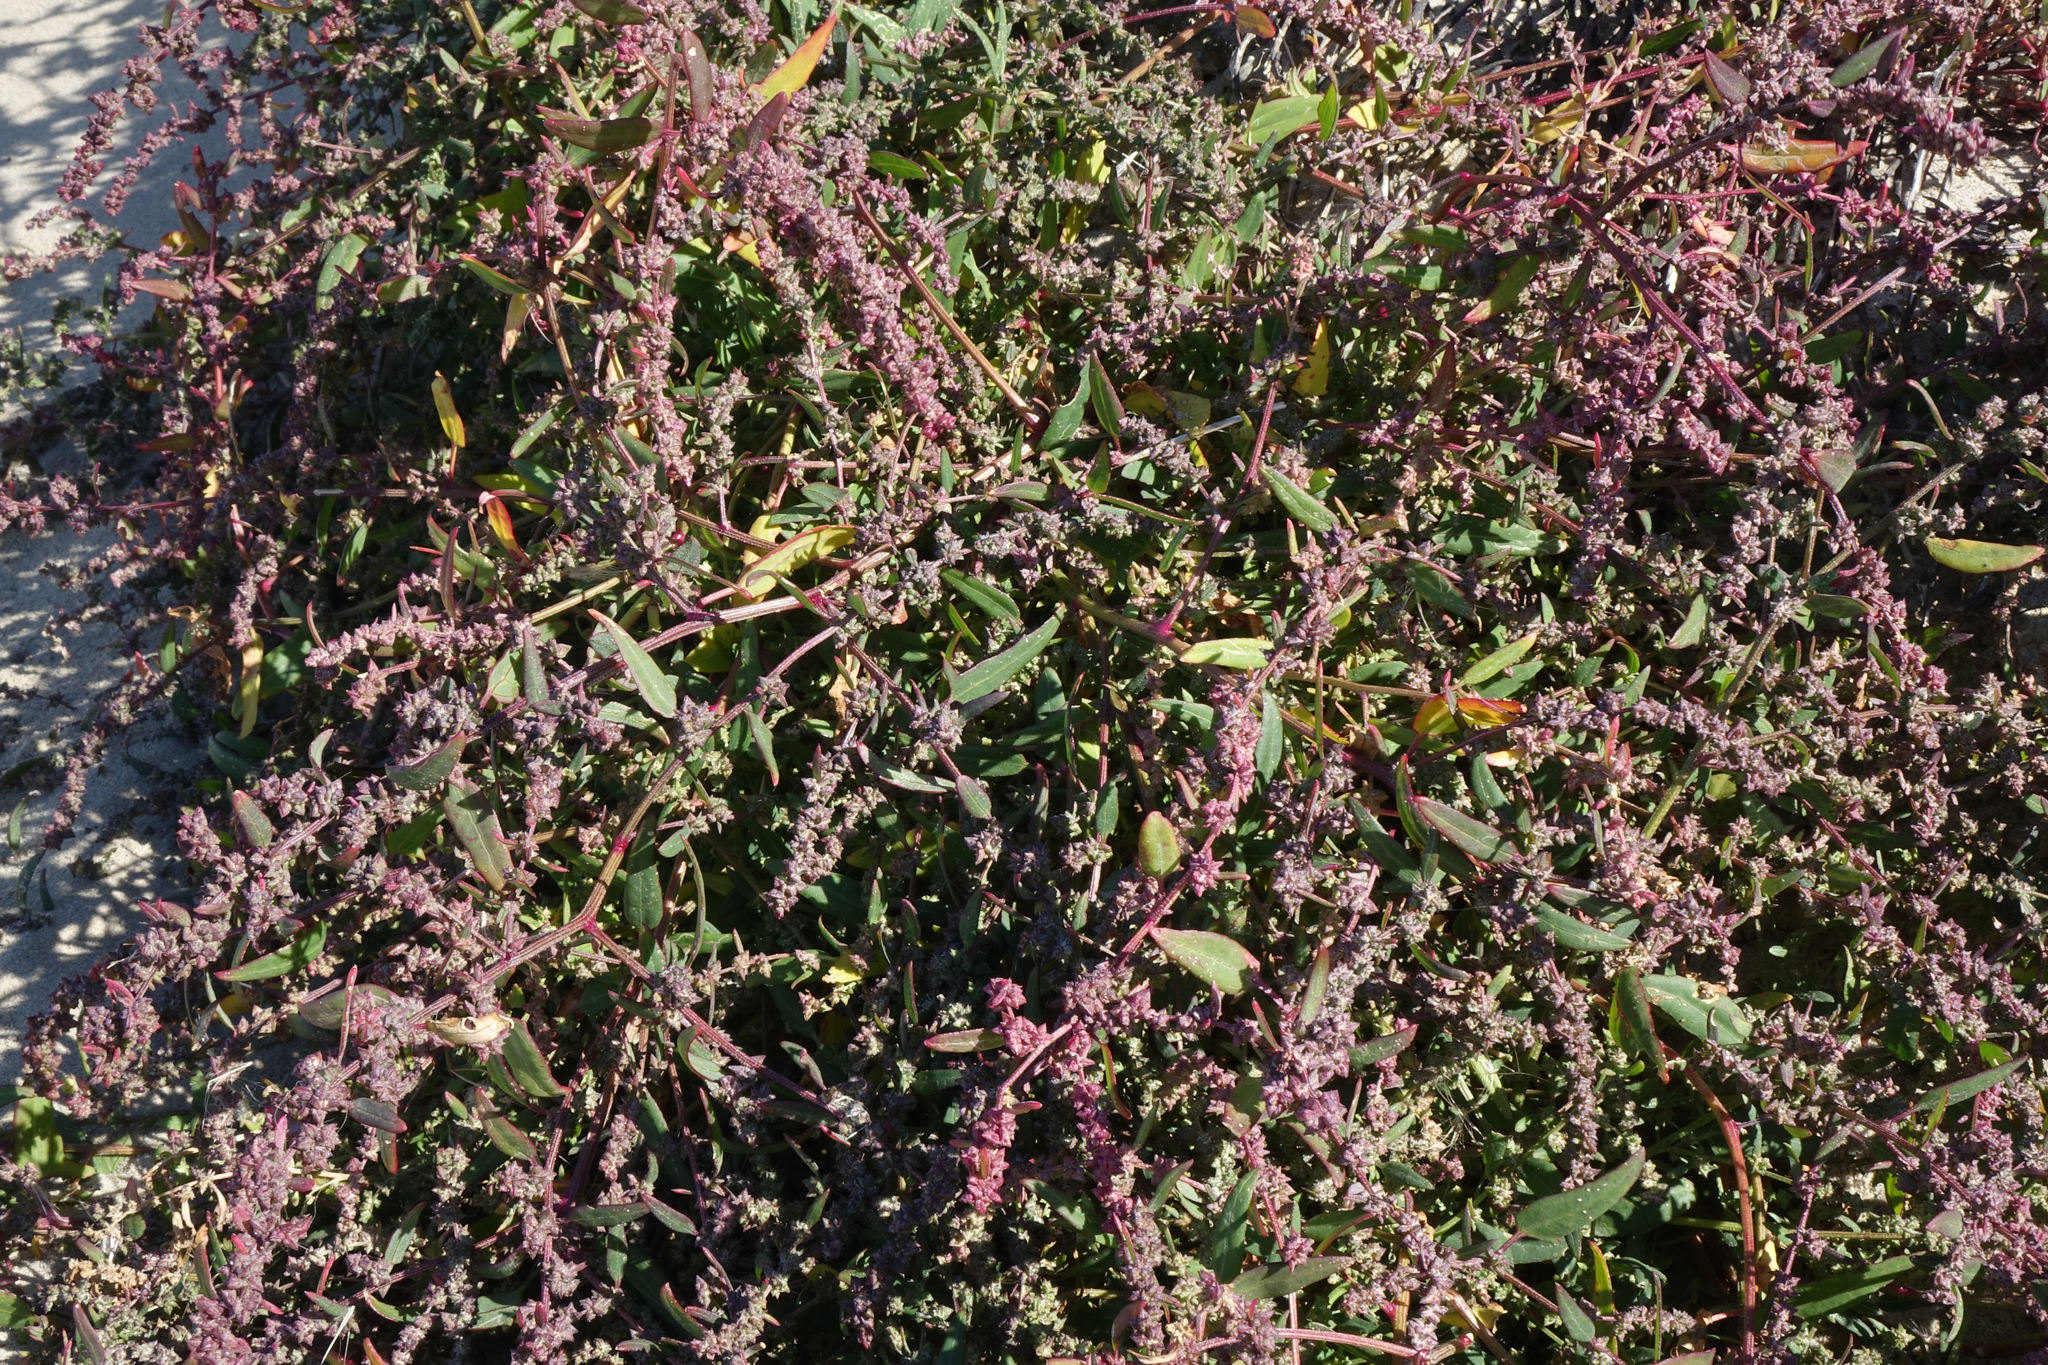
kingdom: Plantae
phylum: Tracheophyta
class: Magnoliopsida
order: Caryophyllales
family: Amaranthaceae
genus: Atriplex
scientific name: Atriplex prostrata
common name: Spear-leaved orache
